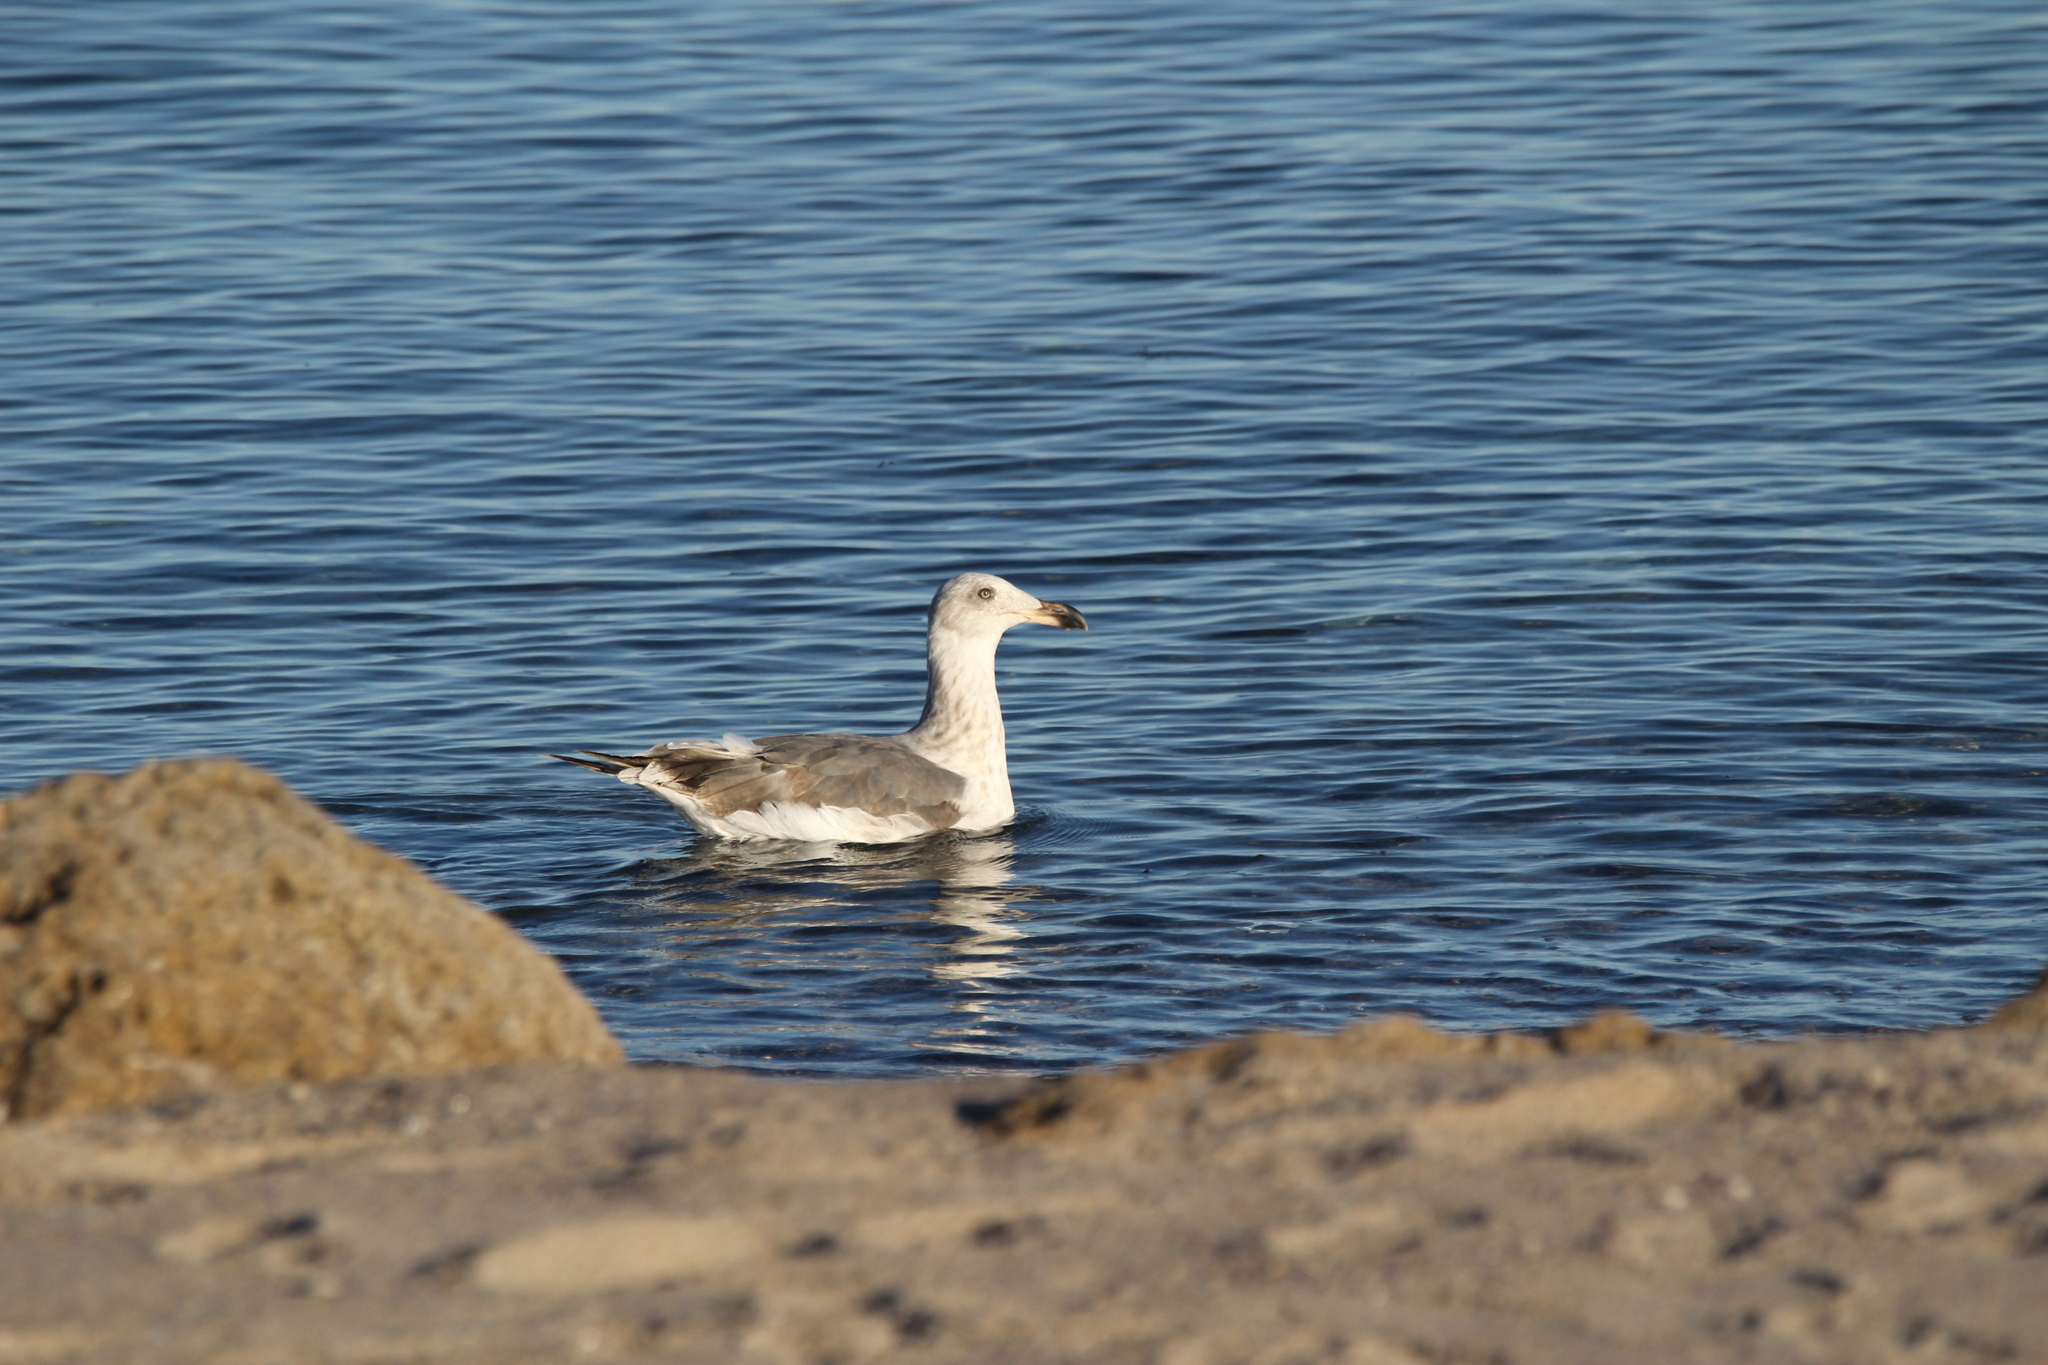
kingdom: Animalia
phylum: Chordata
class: Aves
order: Charadriiformes
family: Laridae
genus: Larus
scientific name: Larus livens
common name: Yellow-footed gull
